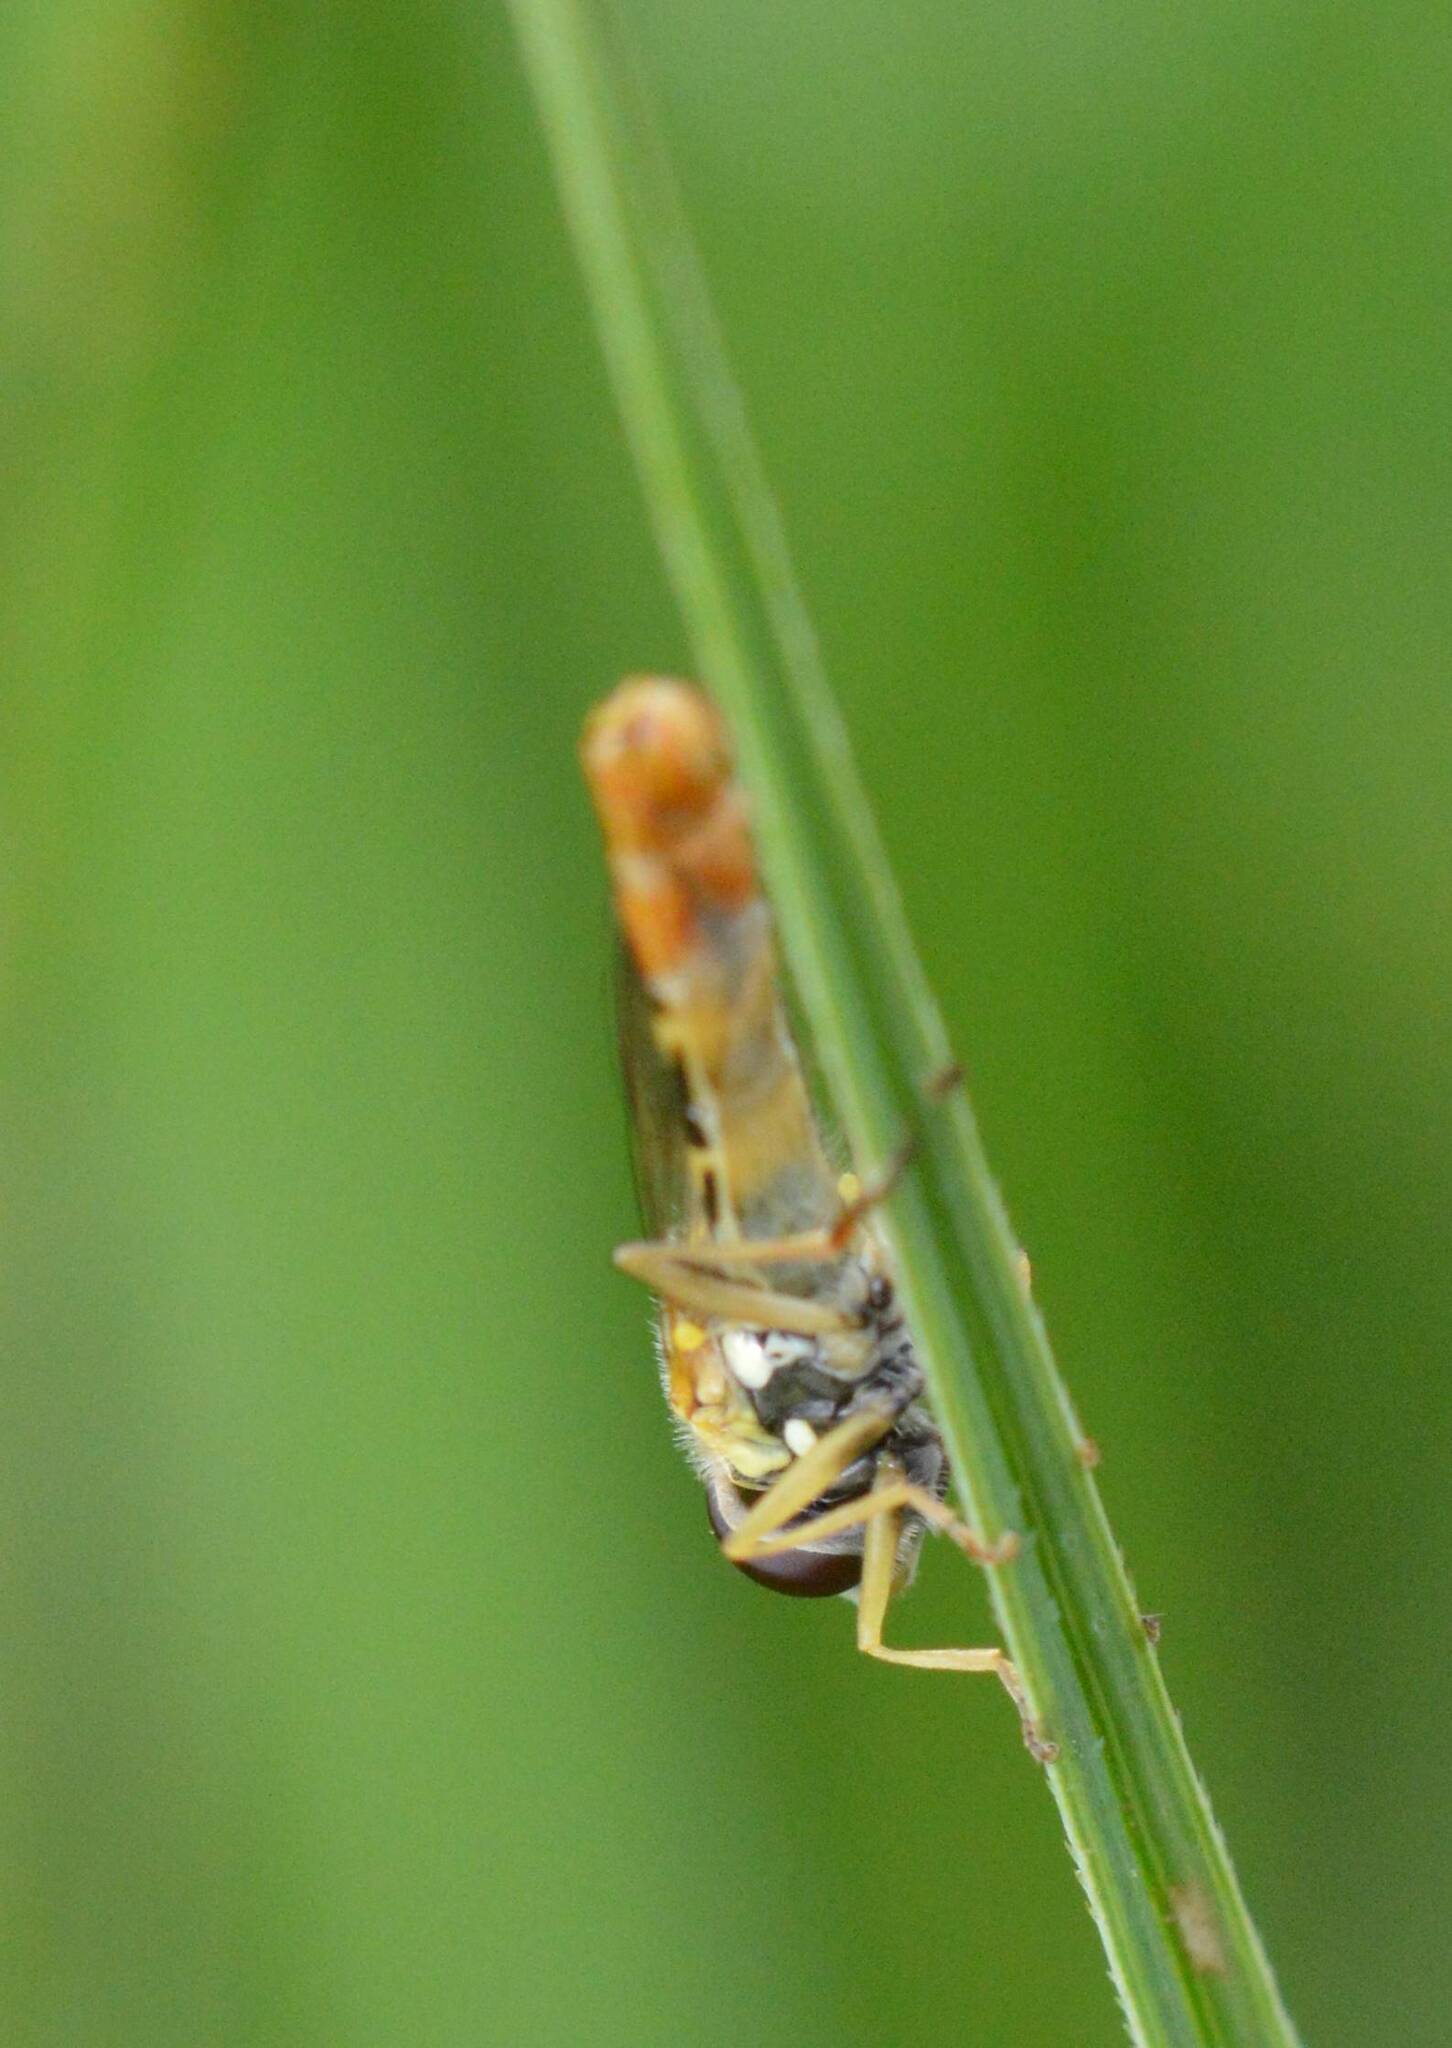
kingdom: Animalia
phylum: Arthropoda
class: Insecta
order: Diptera
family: Syrphidae
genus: Sphaerophoria
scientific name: Sphaerophoria scripta
